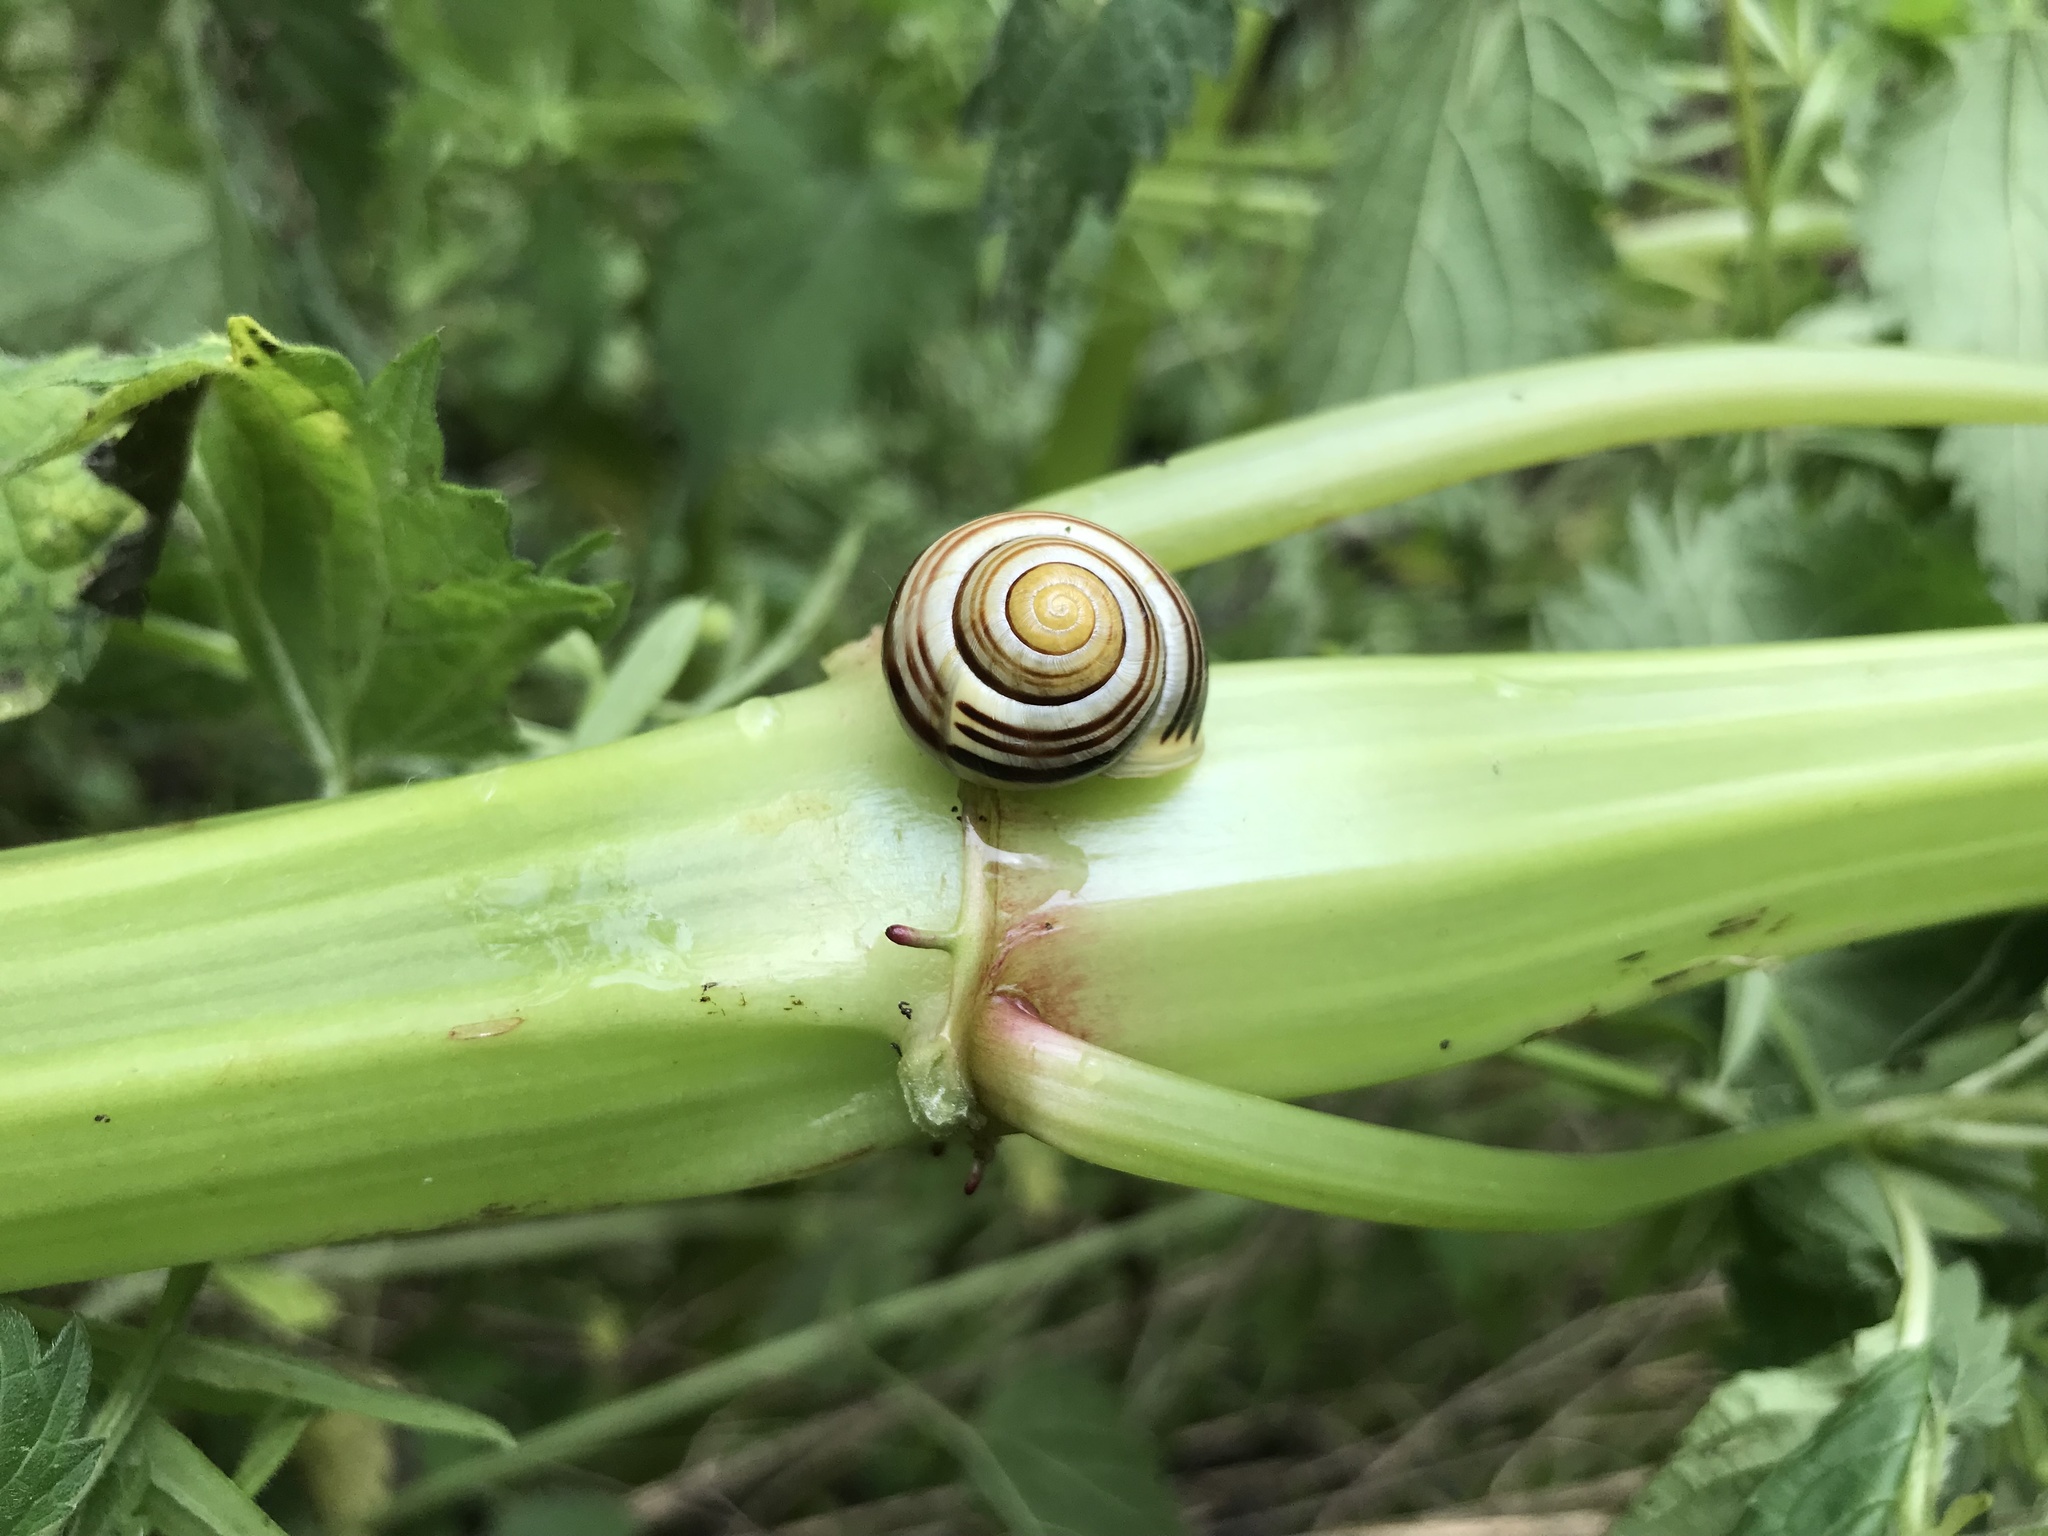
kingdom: Animalia
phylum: Mollusca
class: Gastropoda
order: Stylommatophora
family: Helicidae
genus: Cepaea
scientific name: Cepaea hortensis
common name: White-lip gardensnail
